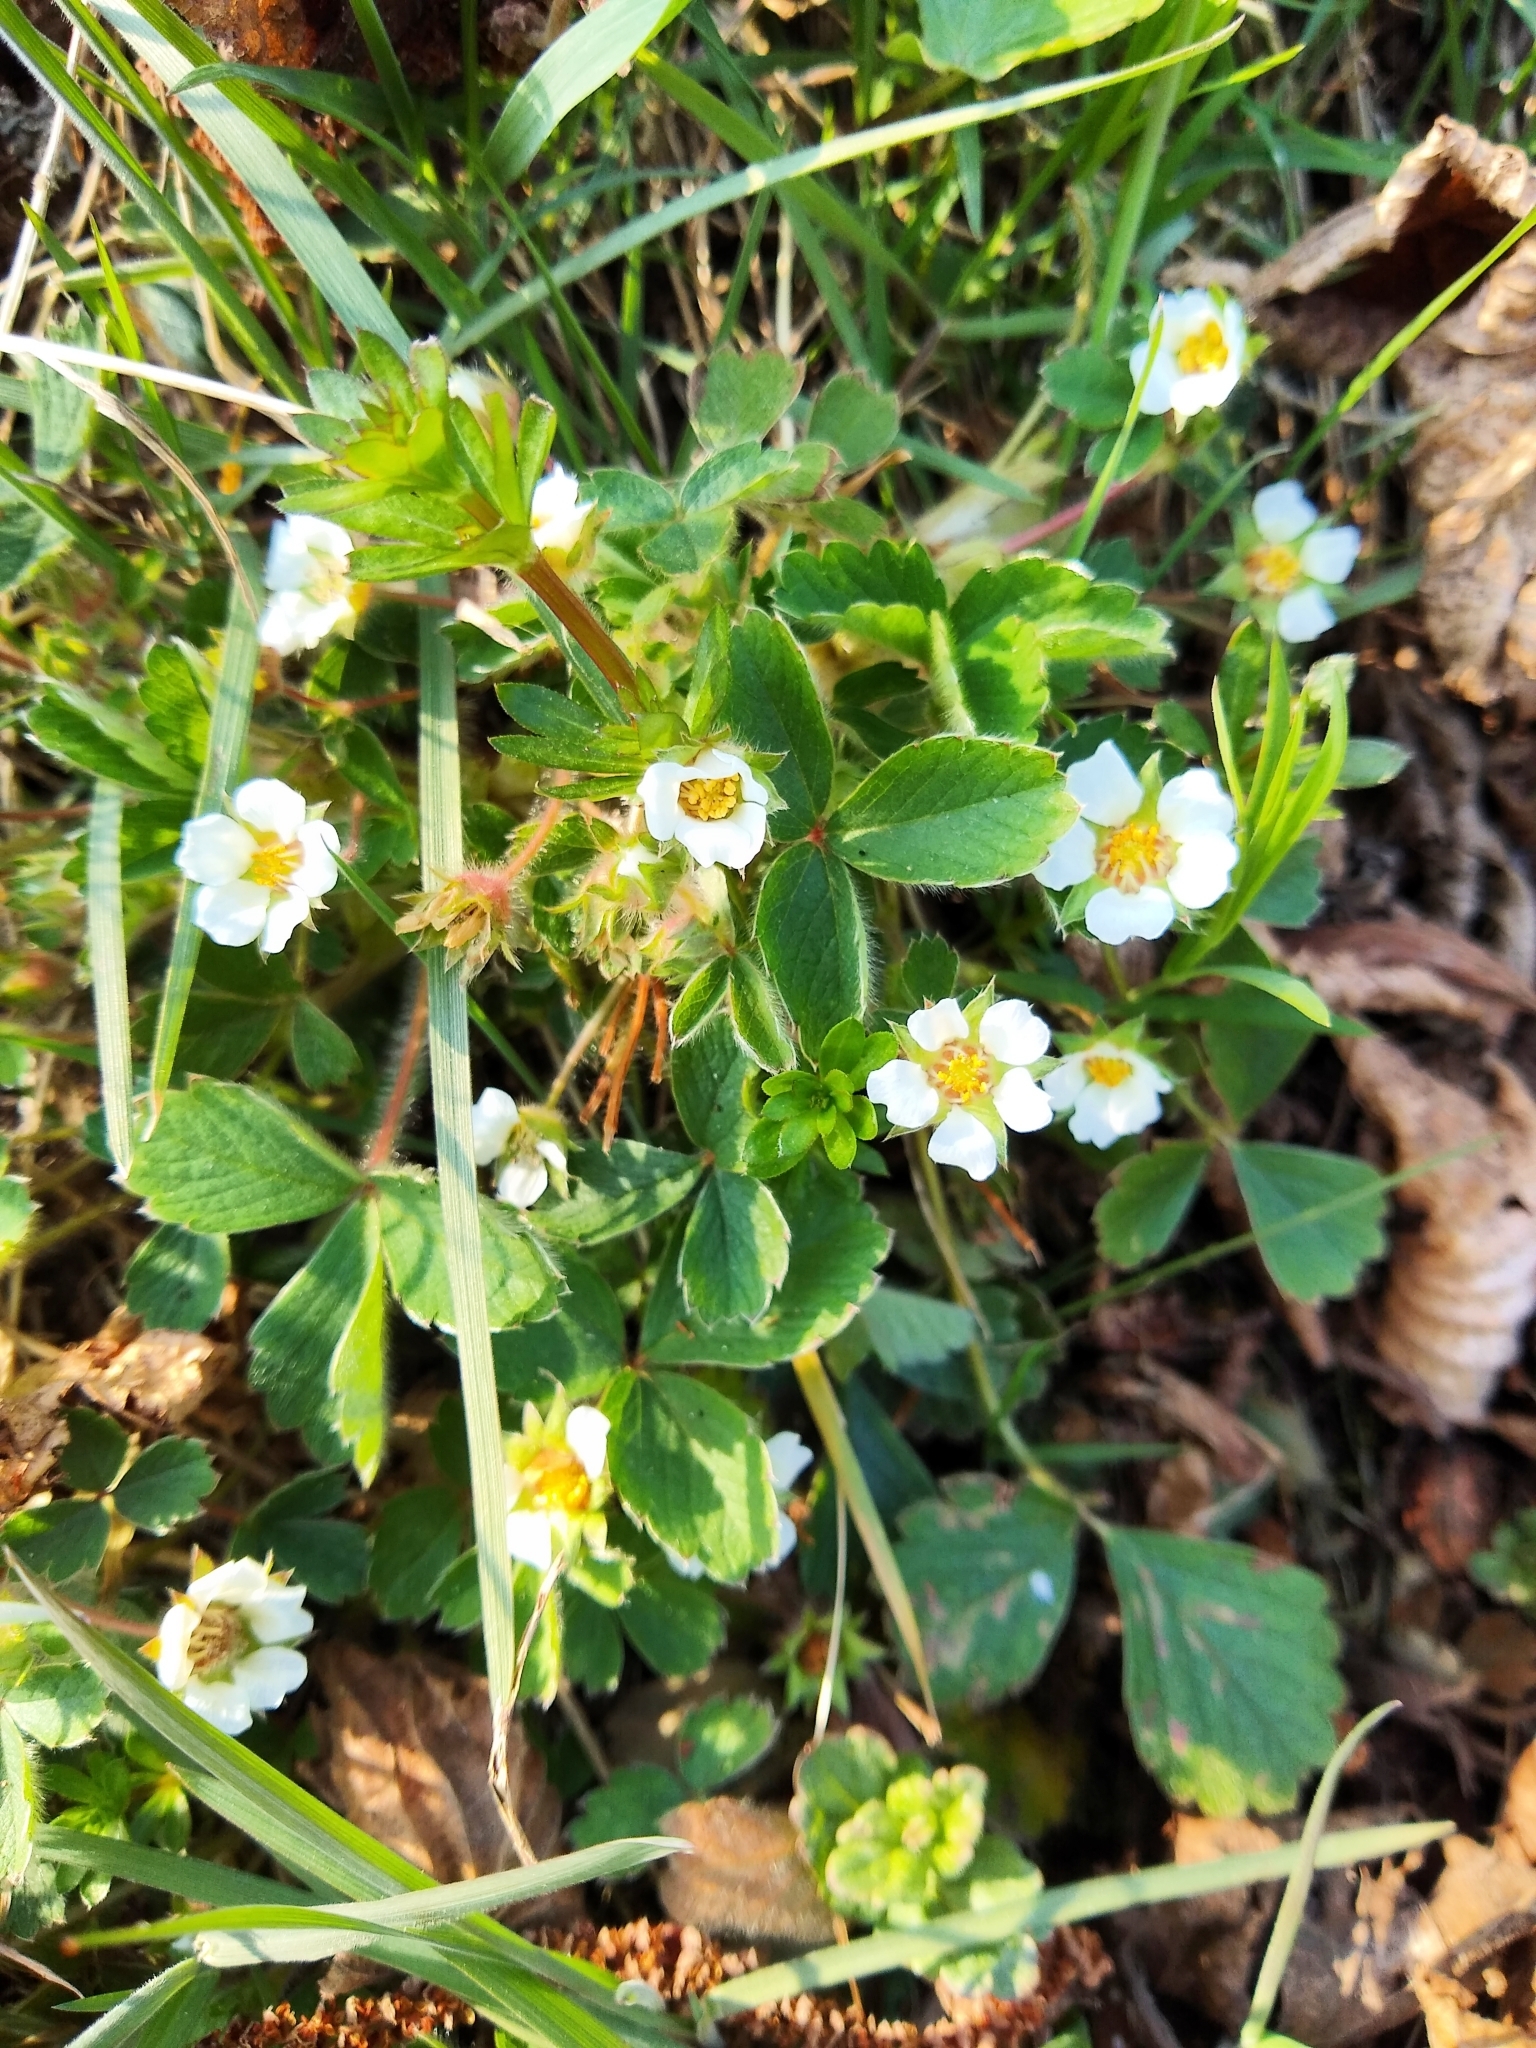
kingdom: Plantae
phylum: Tracheophyta
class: Magnoliopsida
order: Rosales
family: Rosaceae
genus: Potentilla
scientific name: Potentilla sterilis
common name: Barren strawberry
